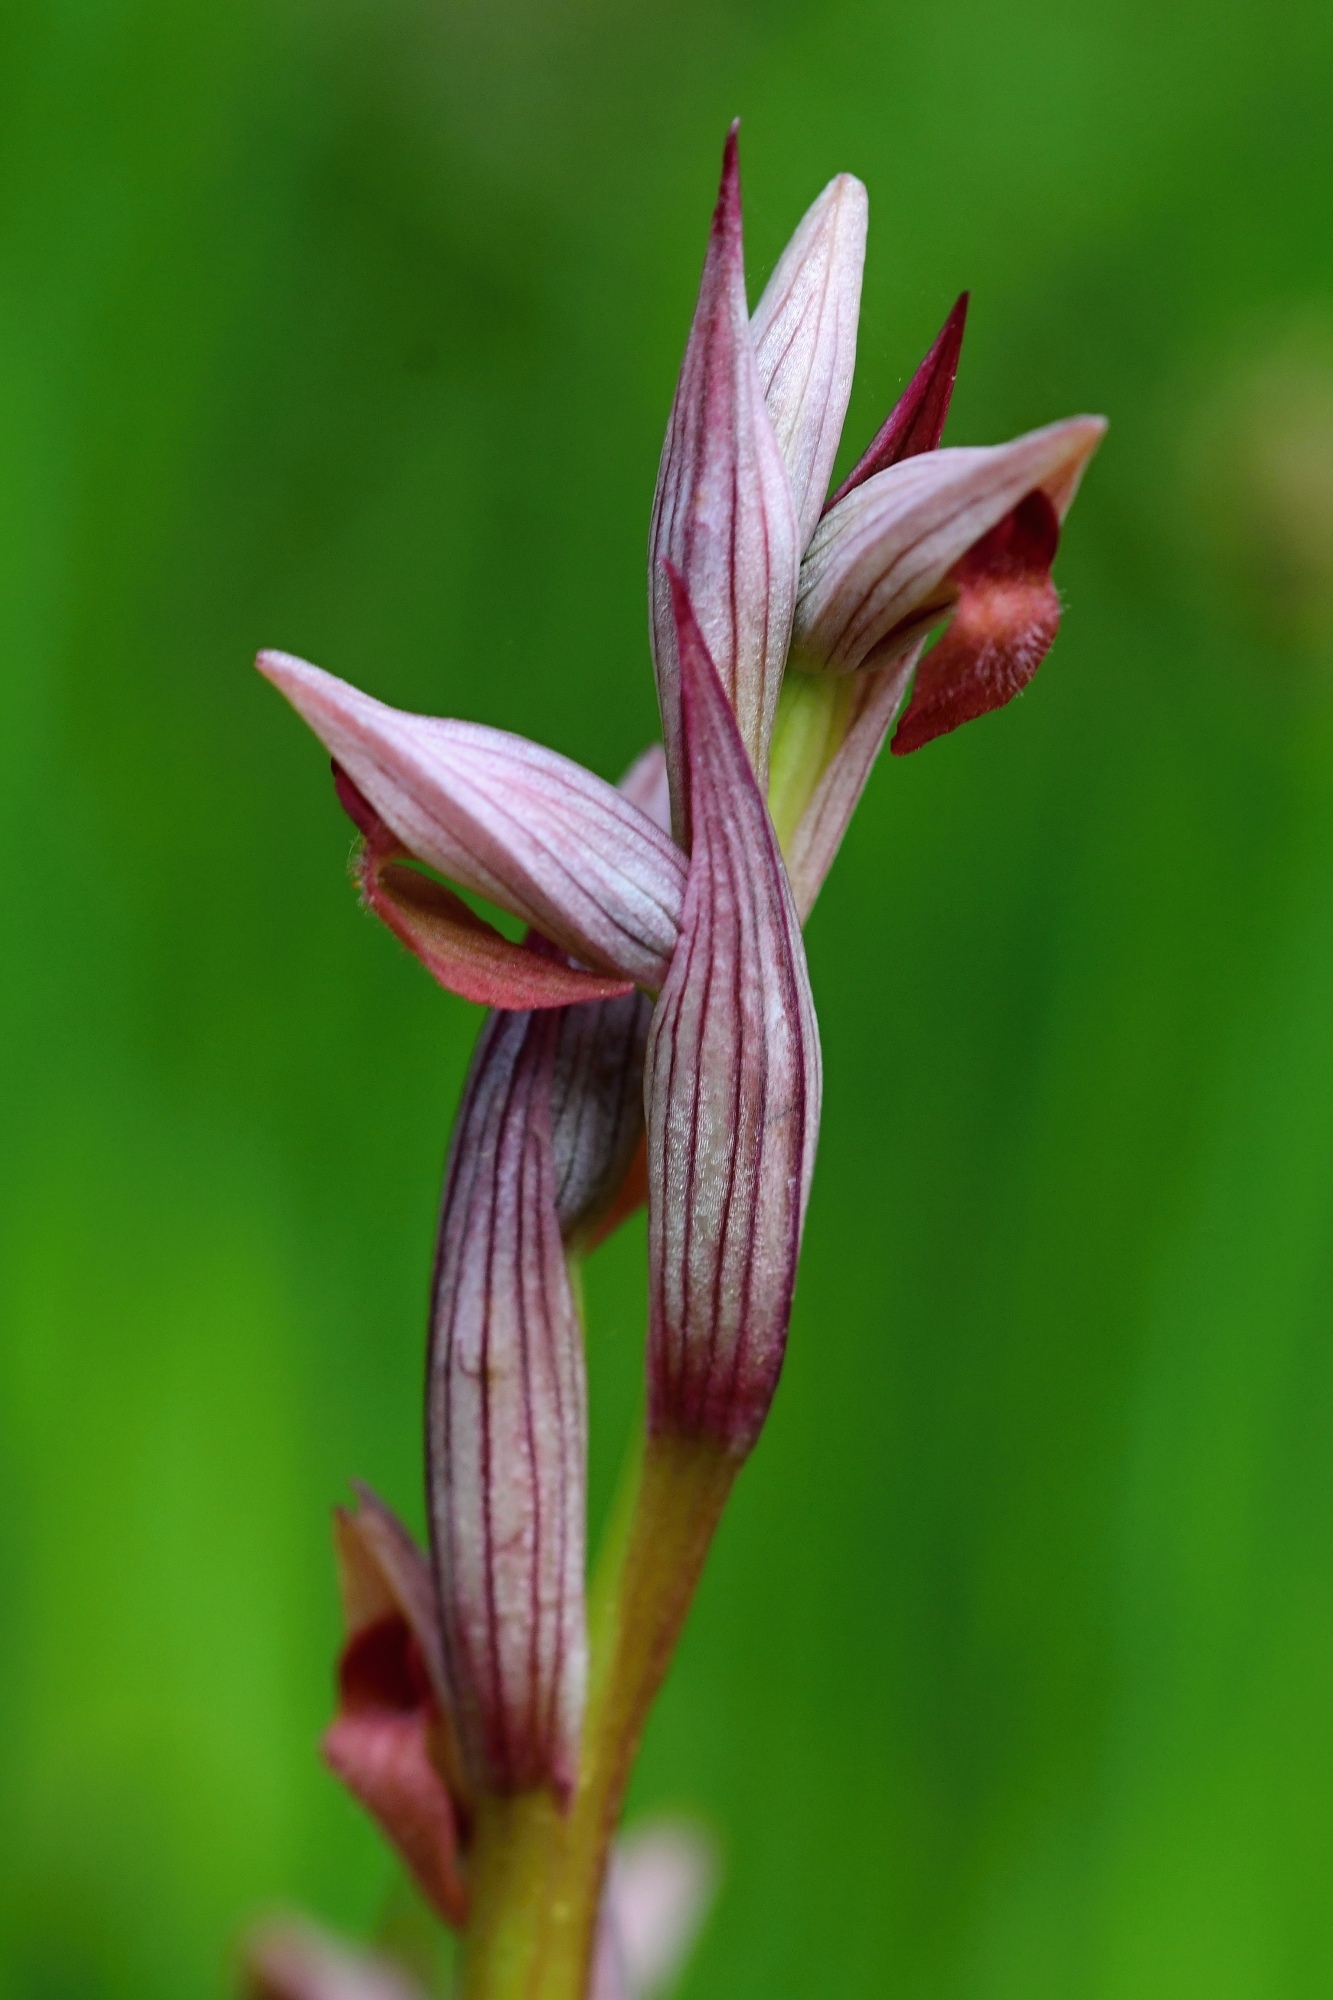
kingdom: Plantae
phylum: Tracheophyta
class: Liliopsida
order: Asparagales
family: Orchidaceae
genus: Serapias
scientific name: Serapias parviflora
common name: Small-flowered tongue-orchid
